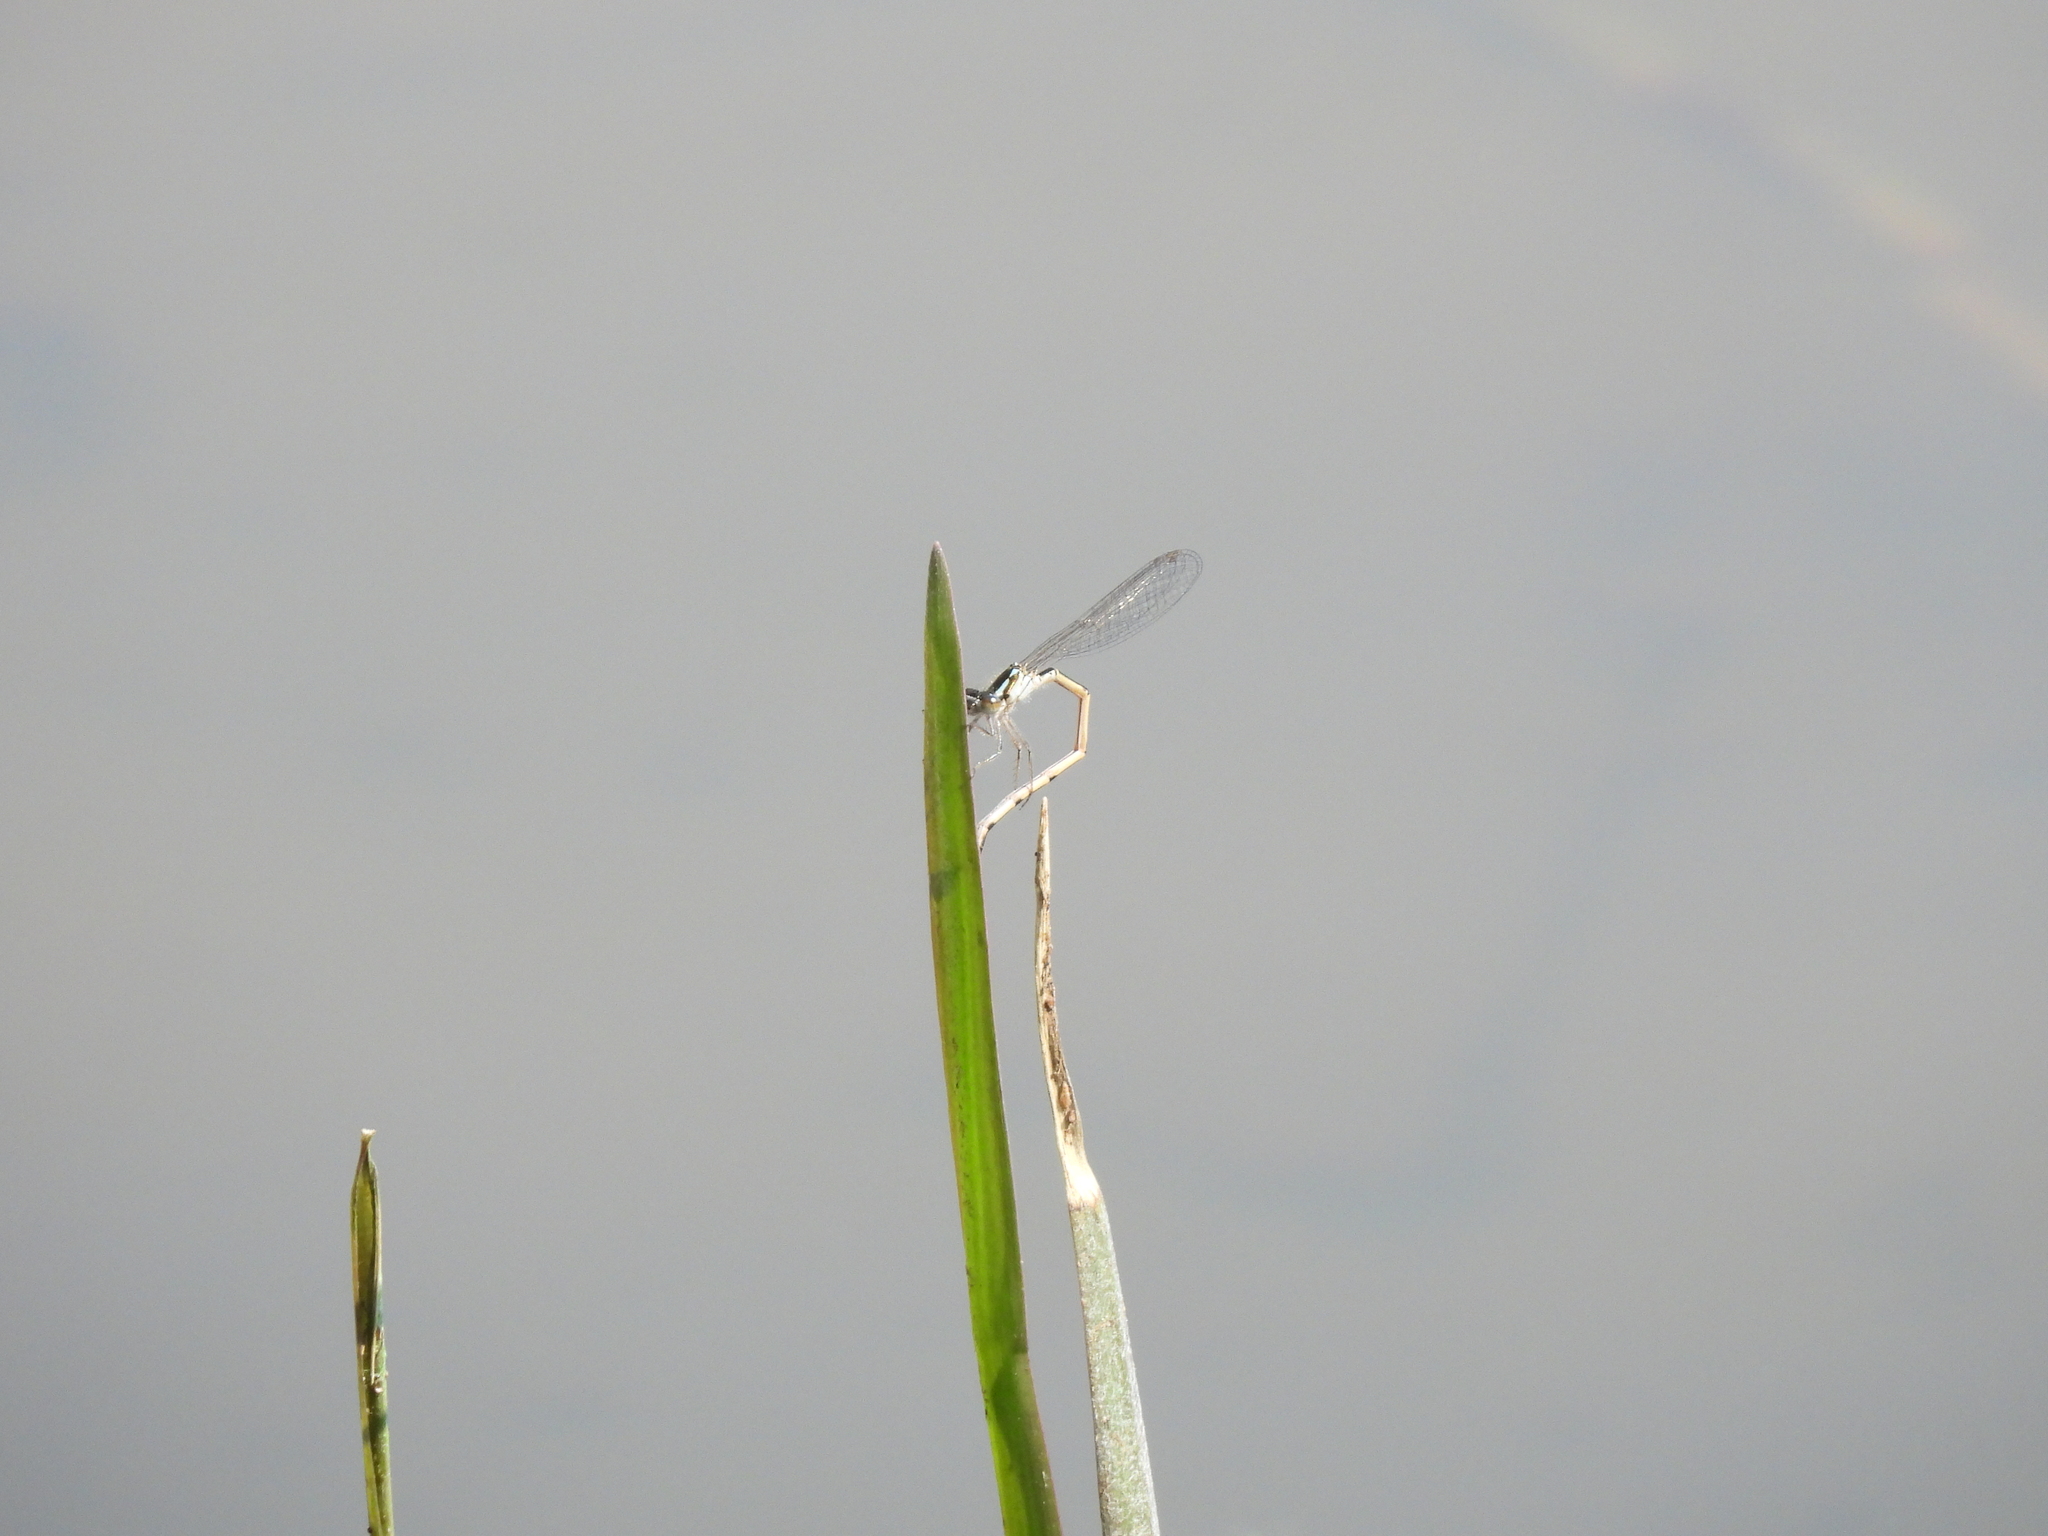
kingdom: Animalia
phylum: Arthropoda
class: Insecta
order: Odonata
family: Coenagrionidae
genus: Ischnura
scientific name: Ischnura posita
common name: Fragile forktail
